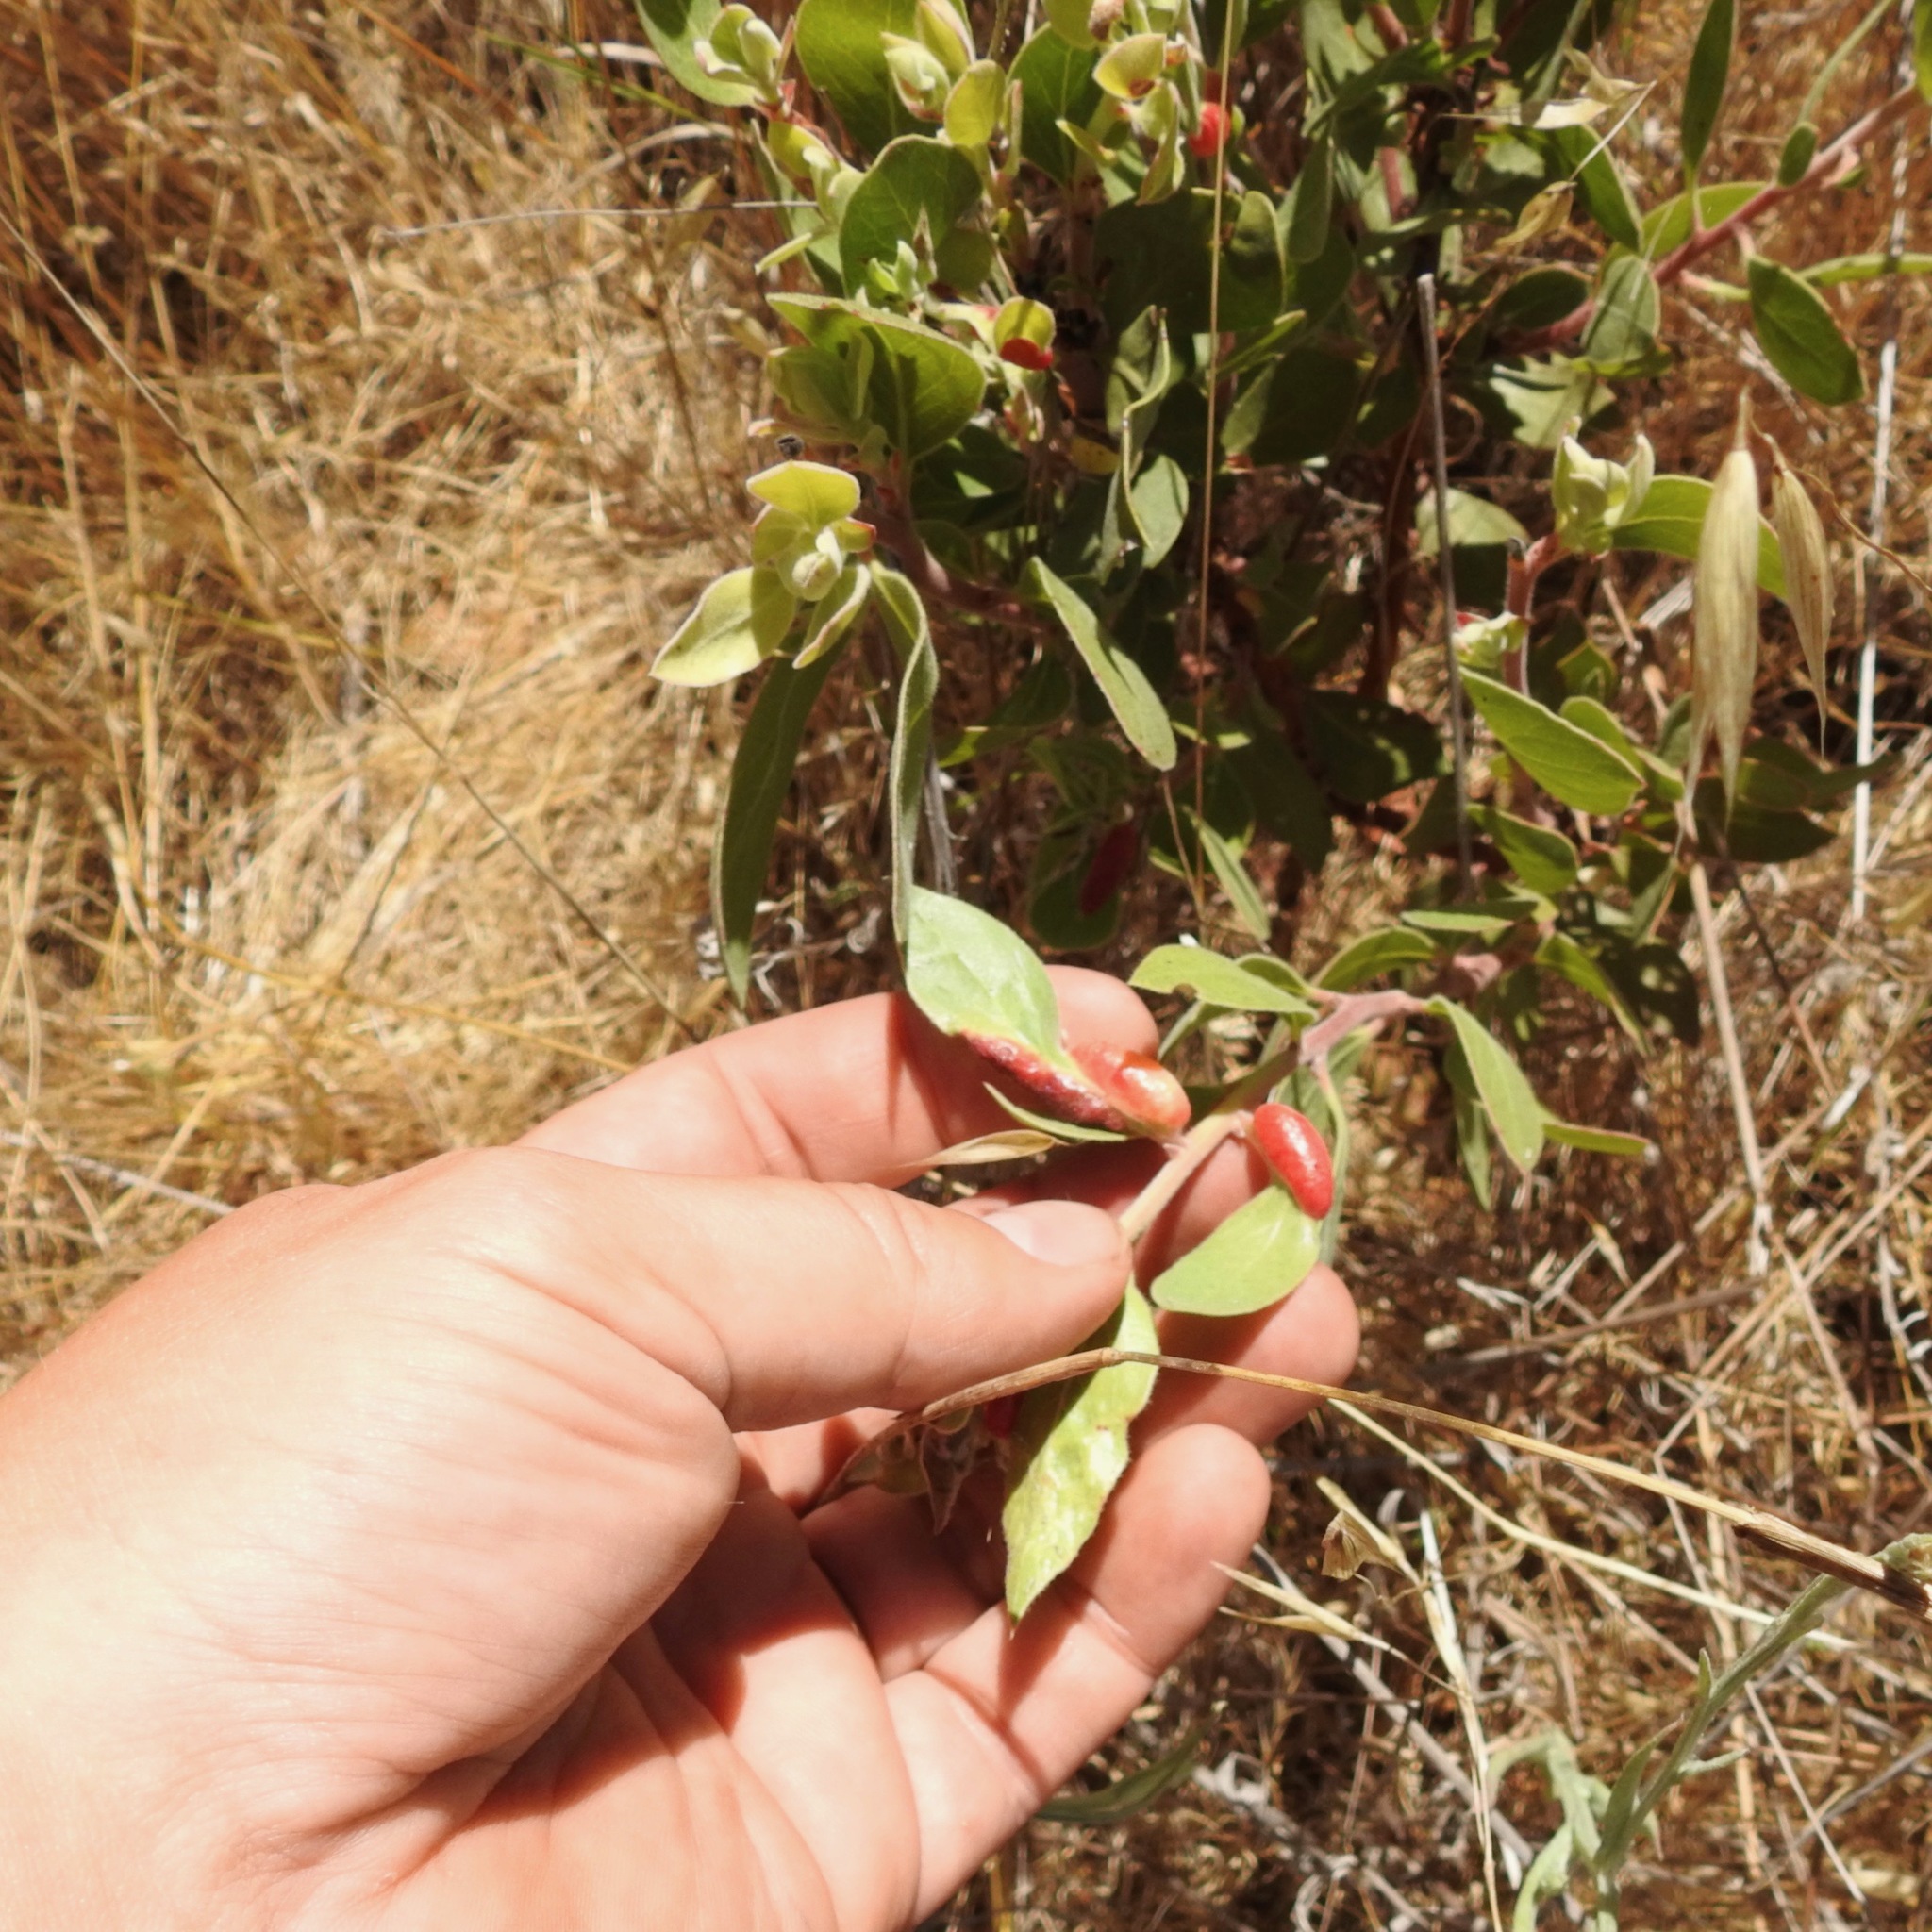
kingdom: Animalia
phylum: Arthropoda
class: Insecta
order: Hemiptera
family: Aphididae
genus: Tamalia
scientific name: Tamalia coweni
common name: Manzanita leafgall aphid
